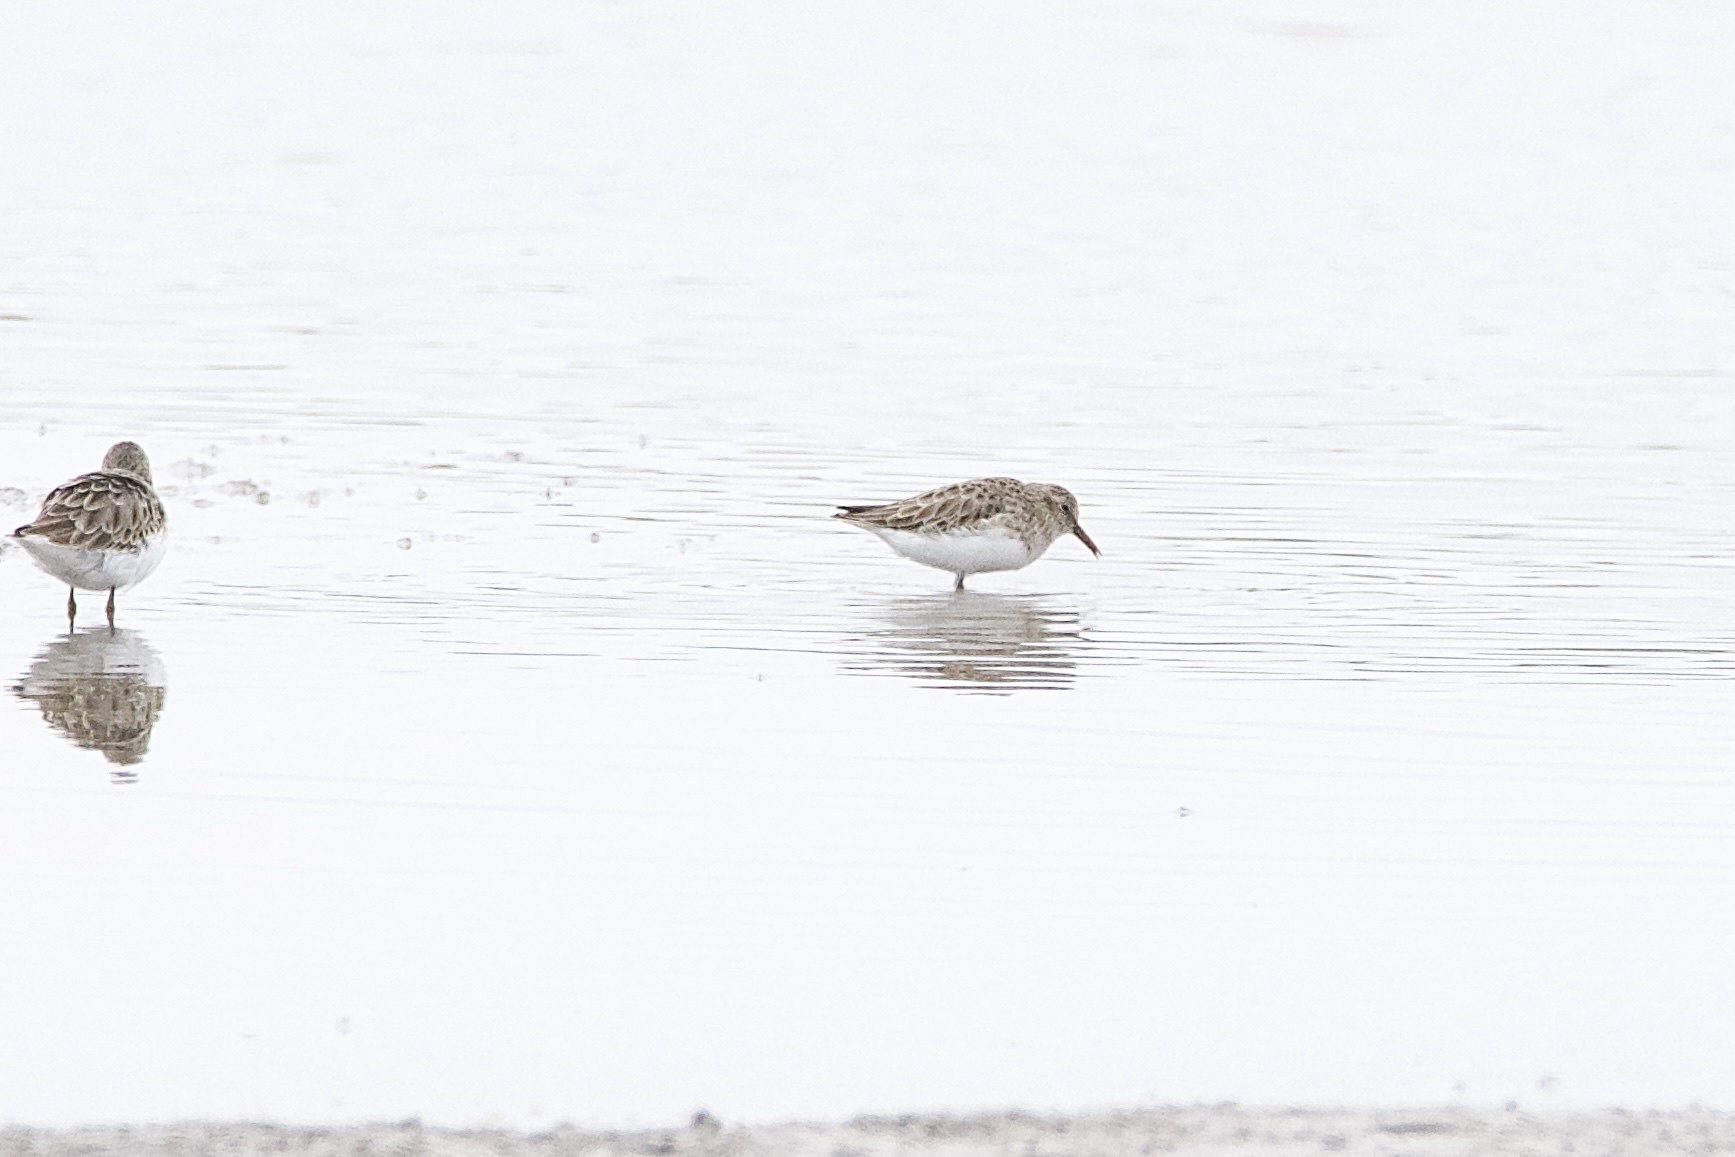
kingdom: Animalia
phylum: Chordata
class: Aves
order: Charadriiformes
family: Scolopacidae
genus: Calidris
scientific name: Calidris minutilla
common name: Least sandpiper
